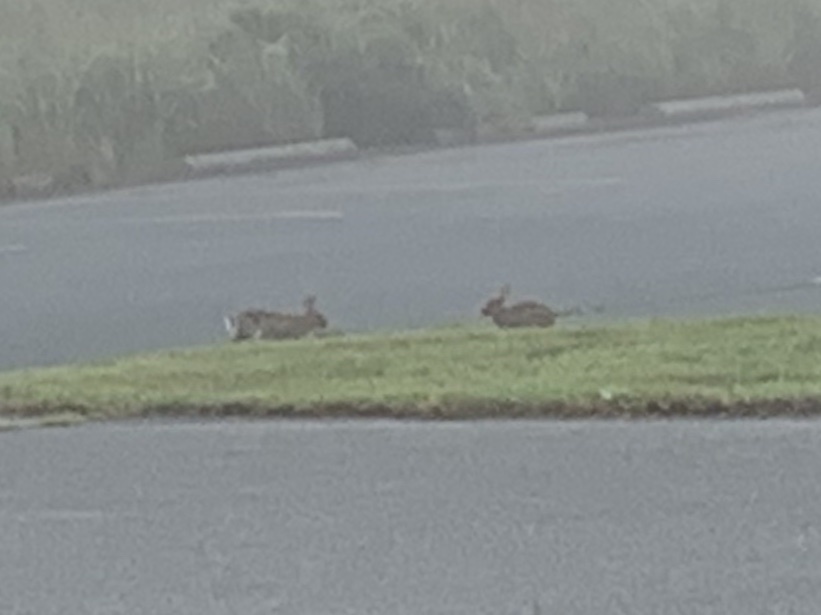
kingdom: Animalia
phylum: Chordata
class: Mammalia
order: Lagomorpha
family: Leporidae
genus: Sylvilagus
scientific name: Sylvilagus floridanus
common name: Eastern cottontail
